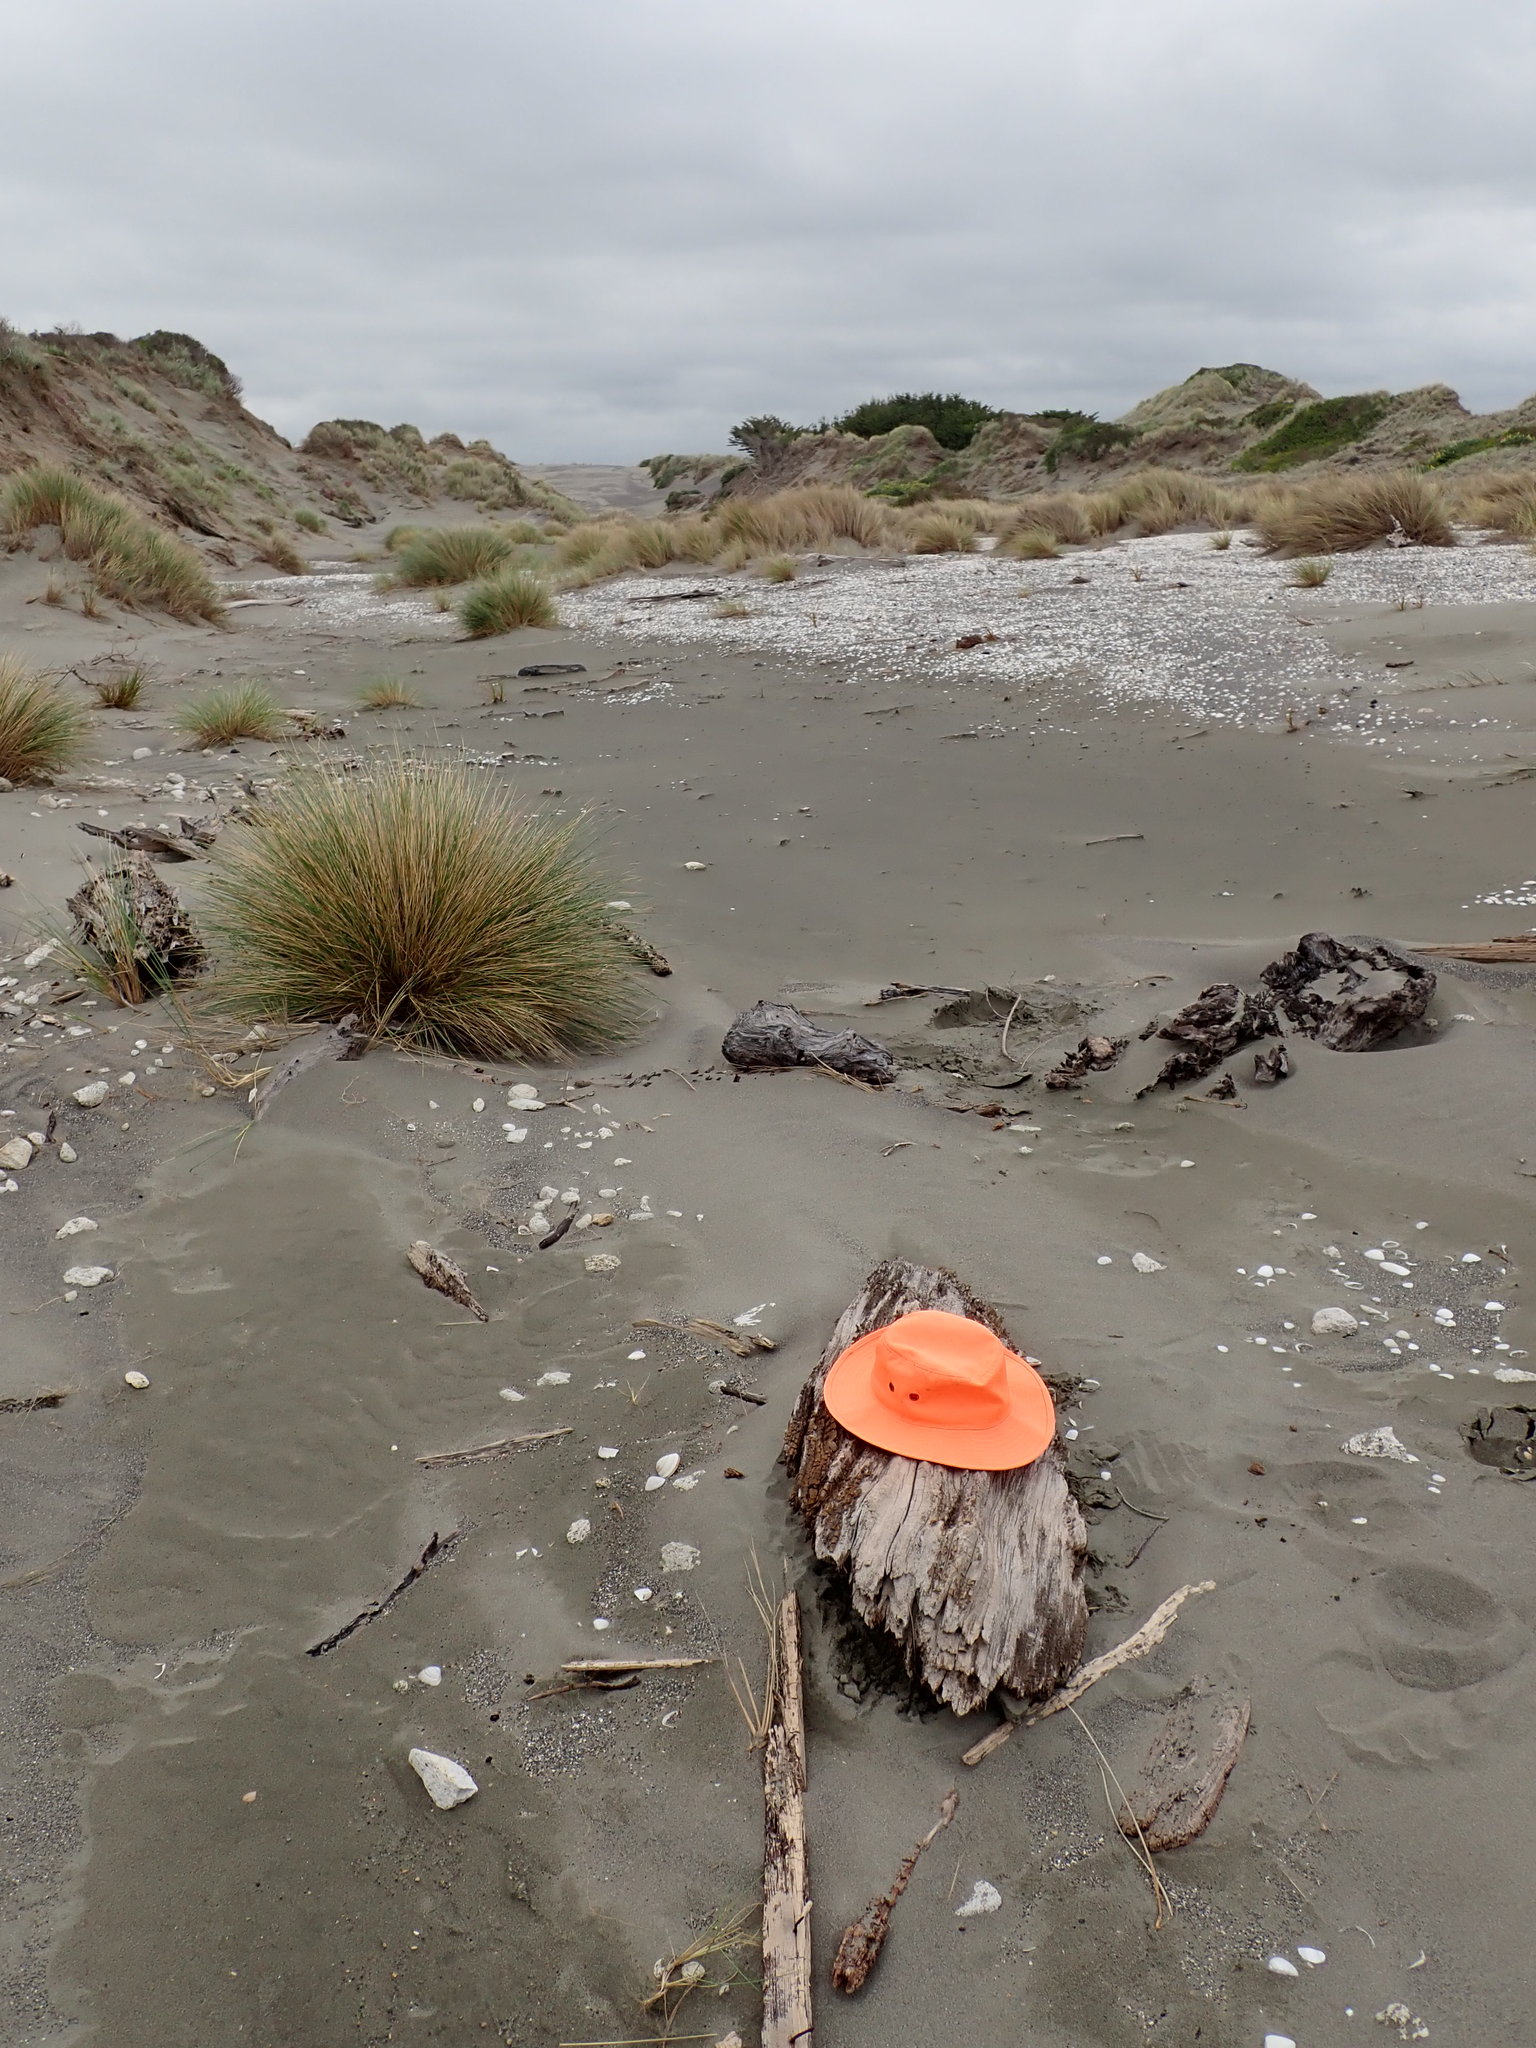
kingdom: Animalia
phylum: Arthropoda
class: Insecta
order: Dermaptera
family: Anisolabididae
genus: Anisolabis
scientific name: Anisolabis littorea
